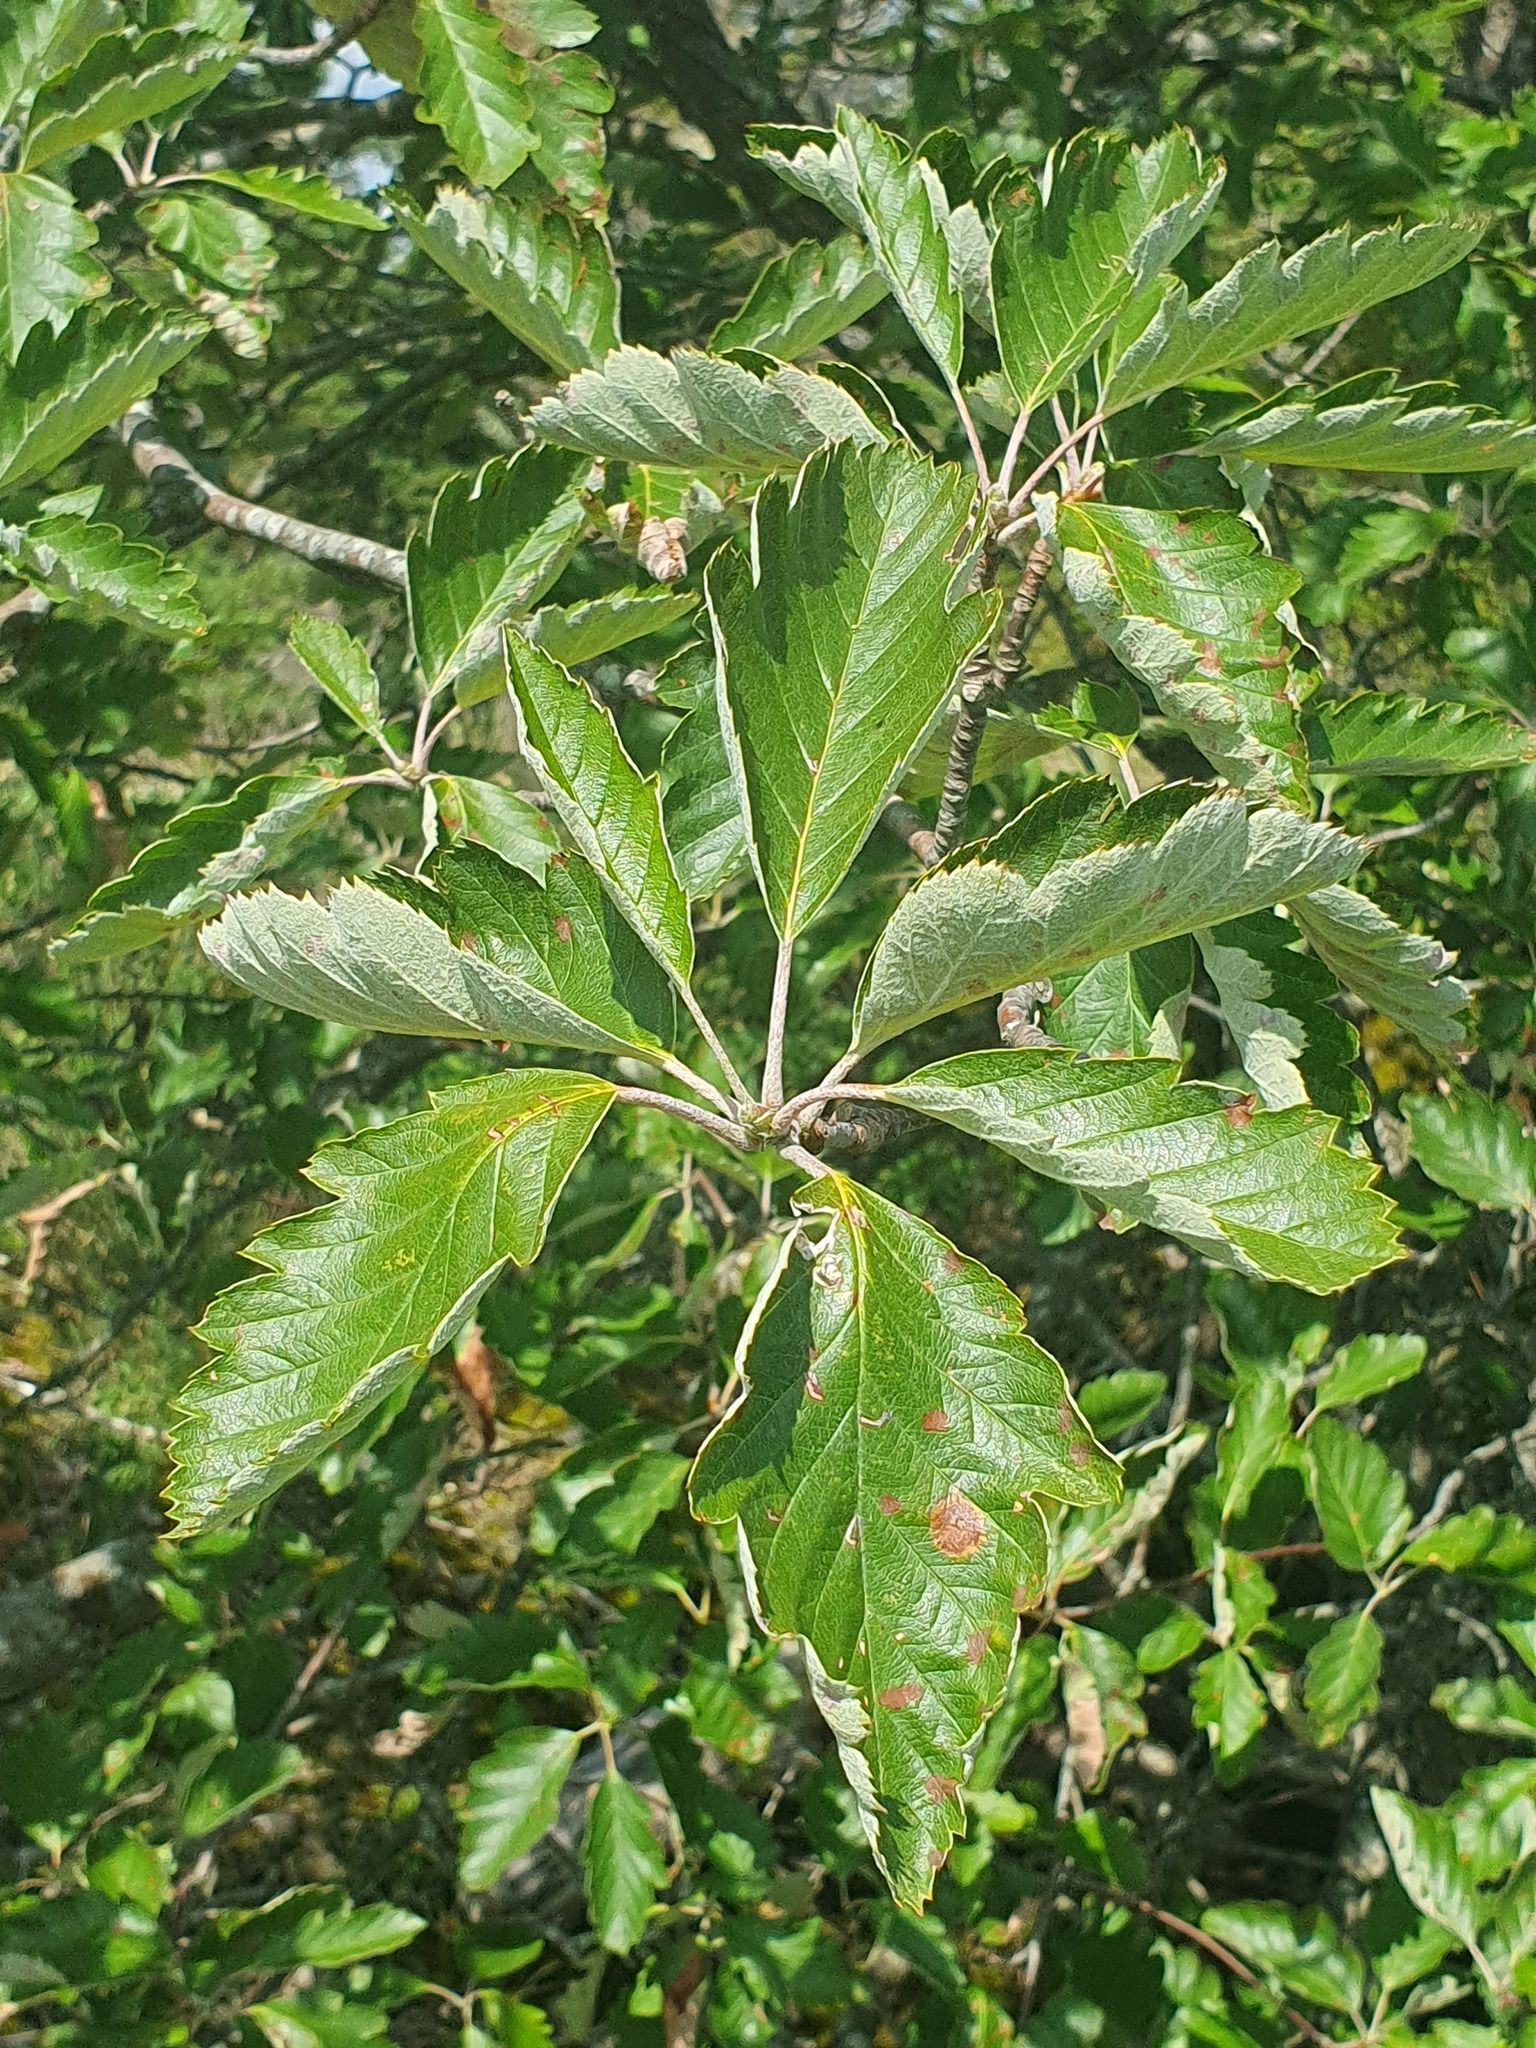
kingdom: Plantae
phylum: Tracheophyta
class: Magnoliopsida
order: Rosales
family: Rosaceae
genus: Scandosorbus
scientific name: Scandosorbus intermedia
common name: Swedish whitebeam
